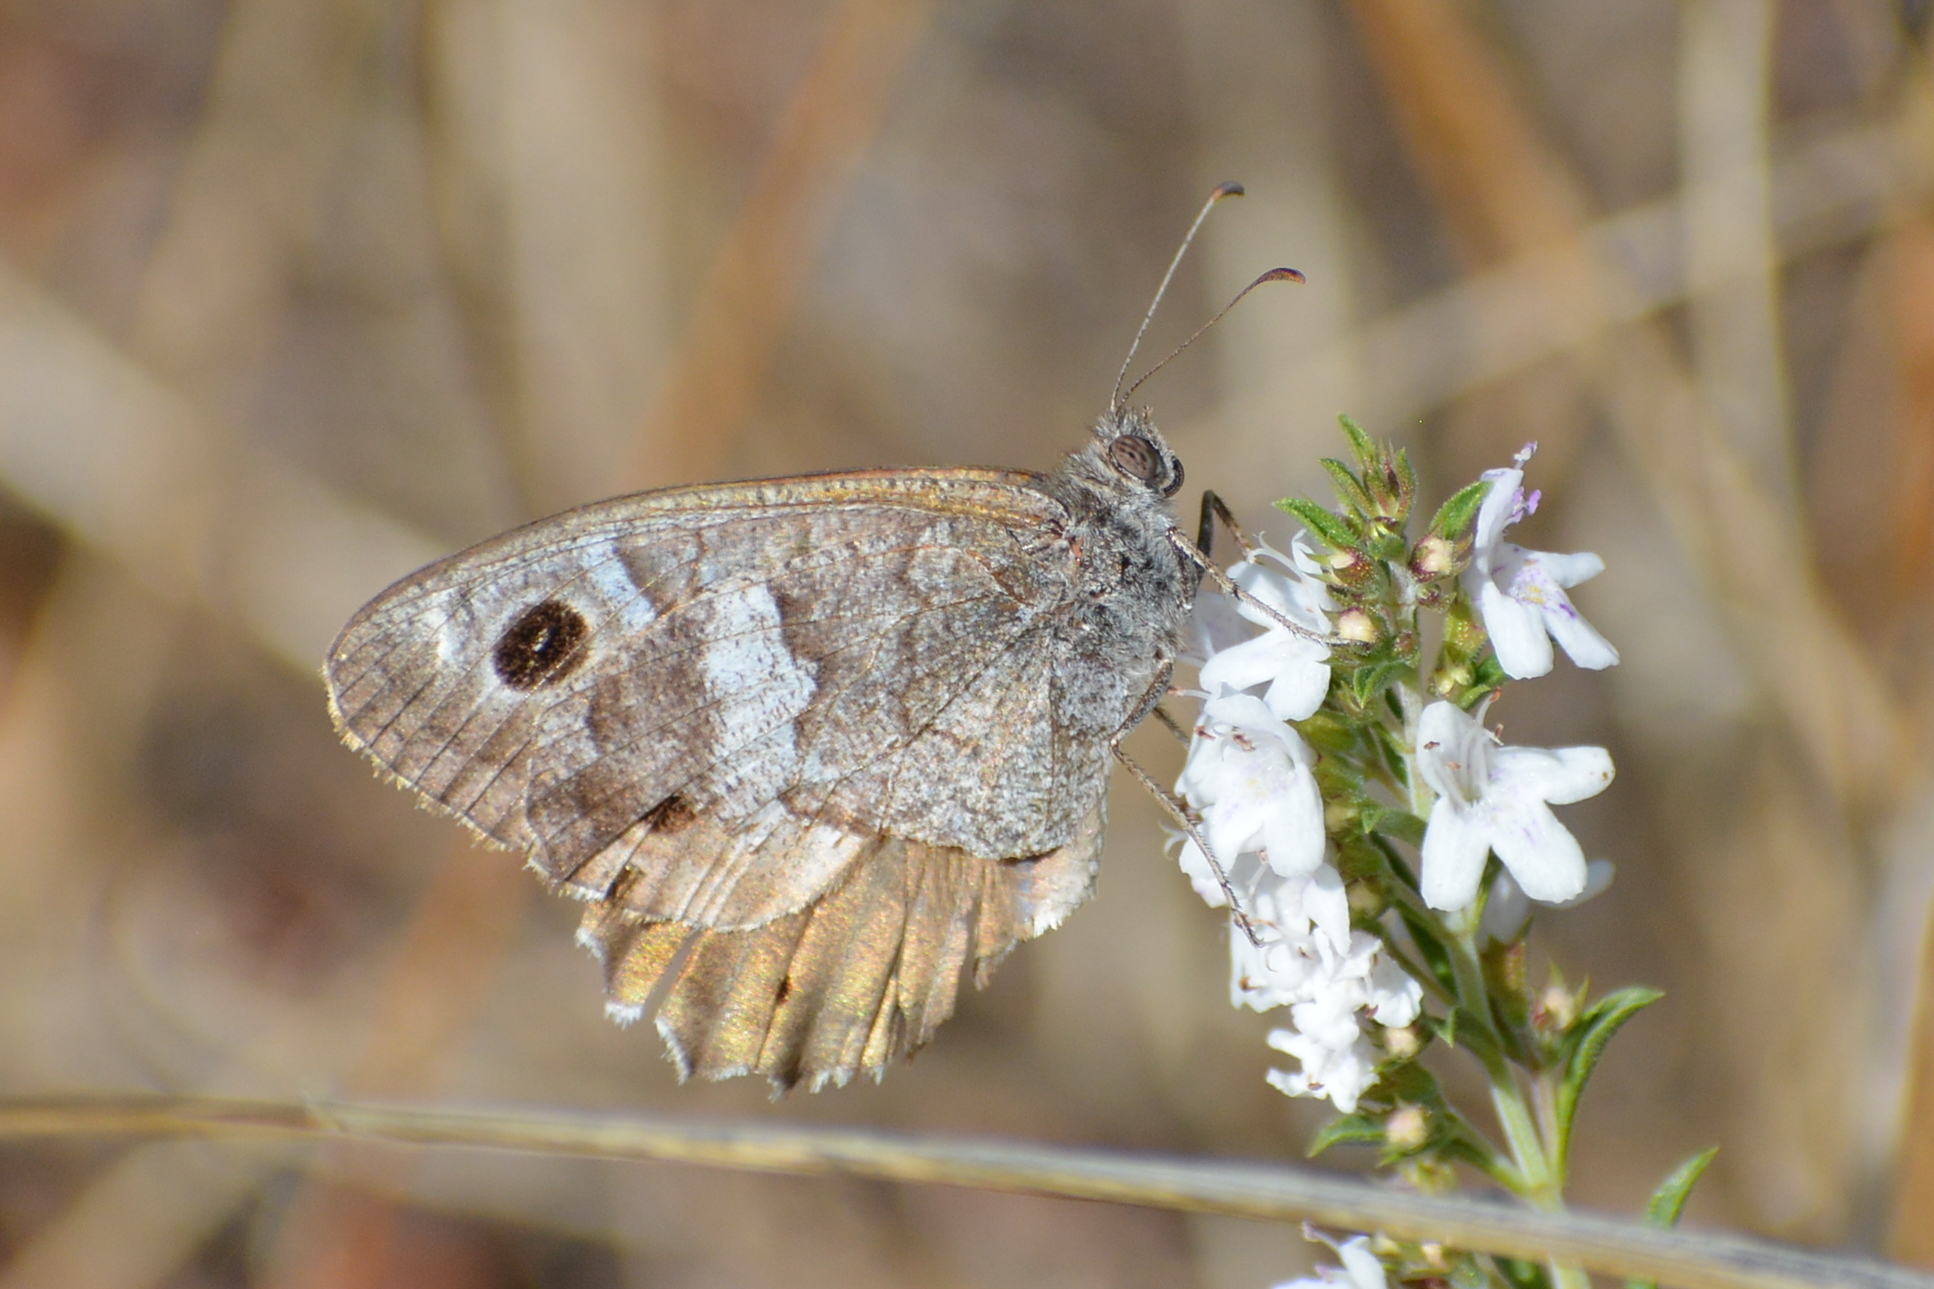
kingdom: Animalia
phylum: Arthropoda
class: Insecta
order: Lepidoptera
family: Nymphalidae
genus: Hipparchia
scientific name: Hipparchia statilinus
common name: Tree grayling
